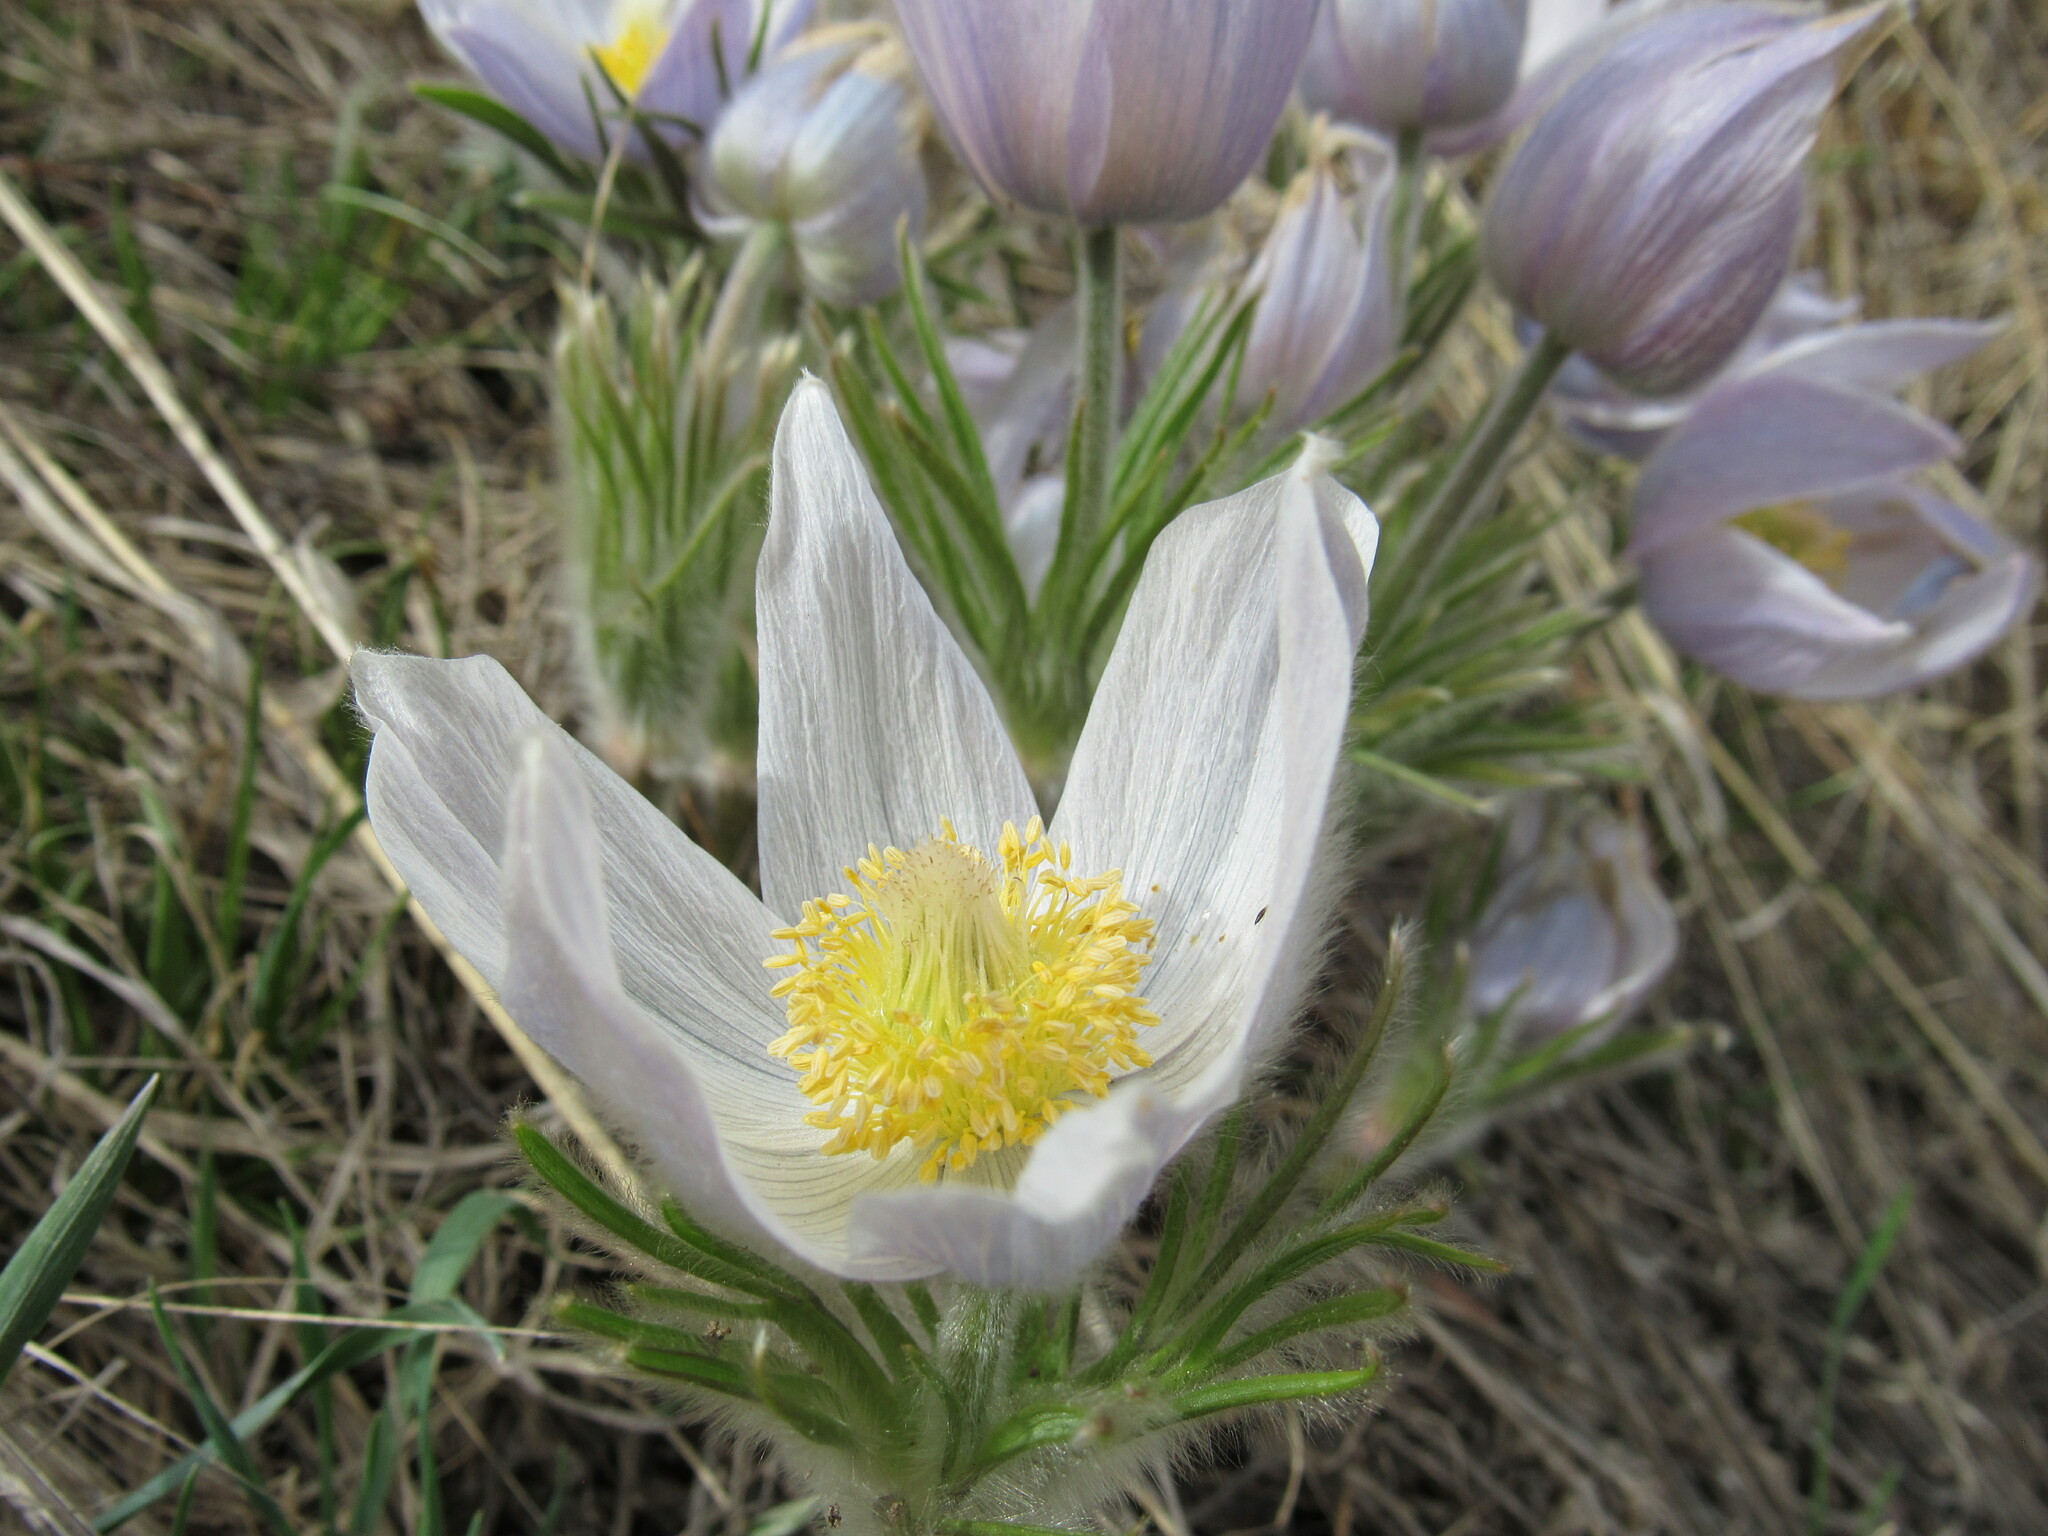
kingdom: Plantae
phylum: Tracheophyta
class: Magnoliopsida
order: Ranunculales
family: Ranunculaceae
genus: Pulsatilla
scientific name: Pulsatilla nuttalliana
